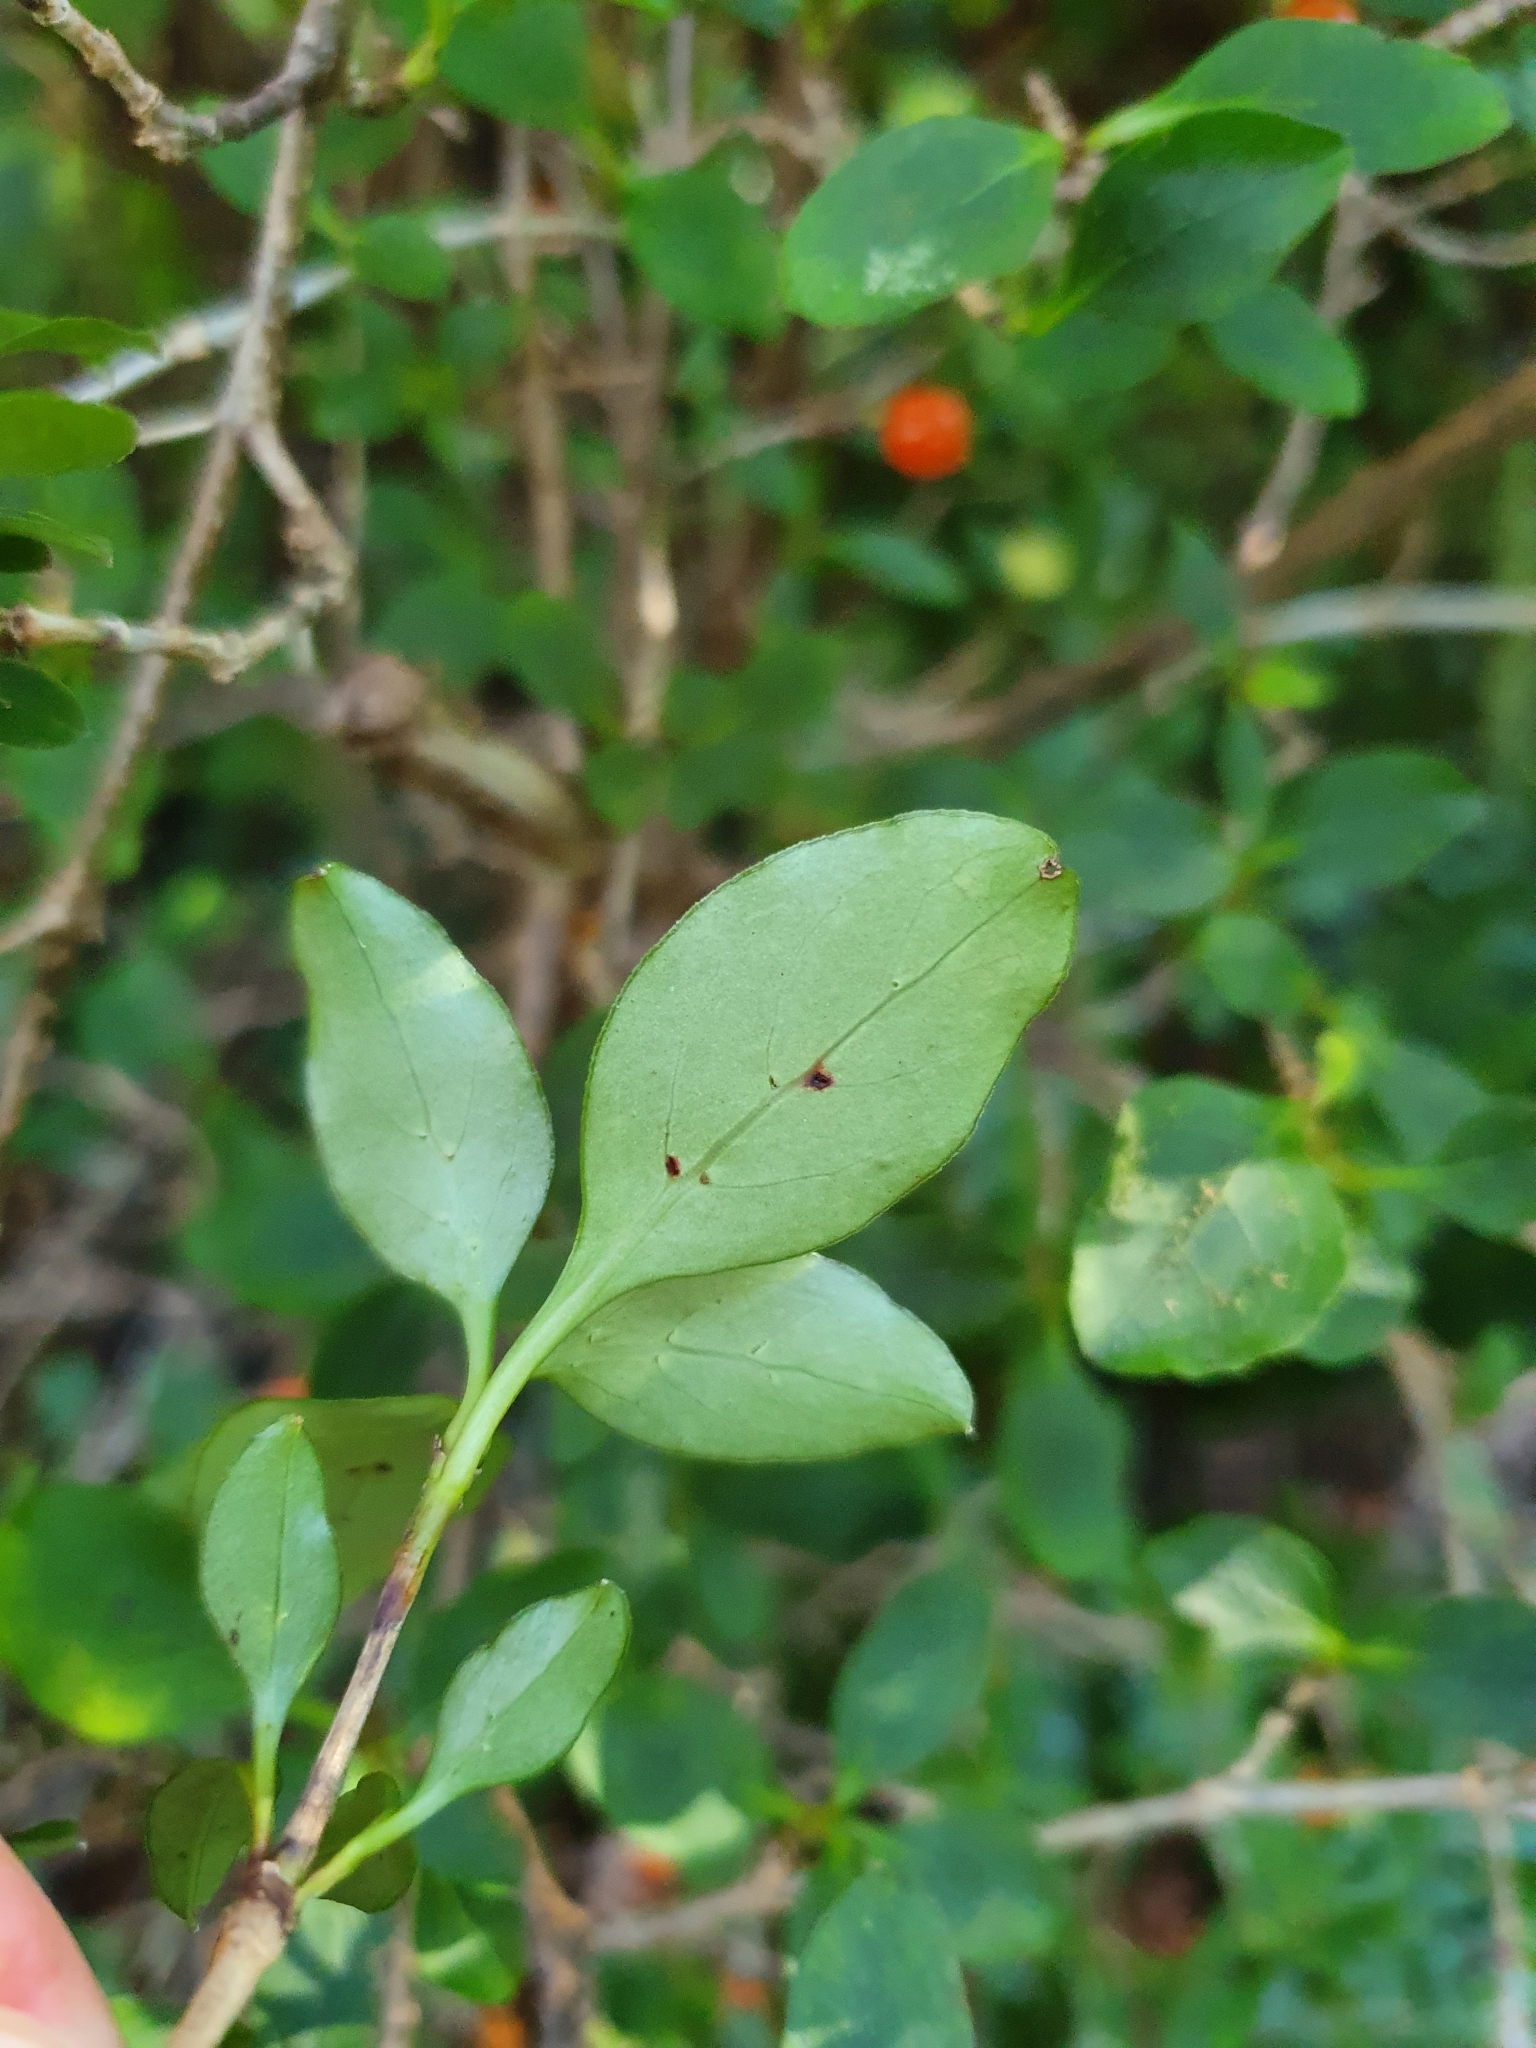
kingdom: Plantae
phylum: Tracheophyta
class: Magnoliopsida
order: Gentianales
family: Rubiaceae
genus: Coprosma
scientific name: Coprosma foetidissima
